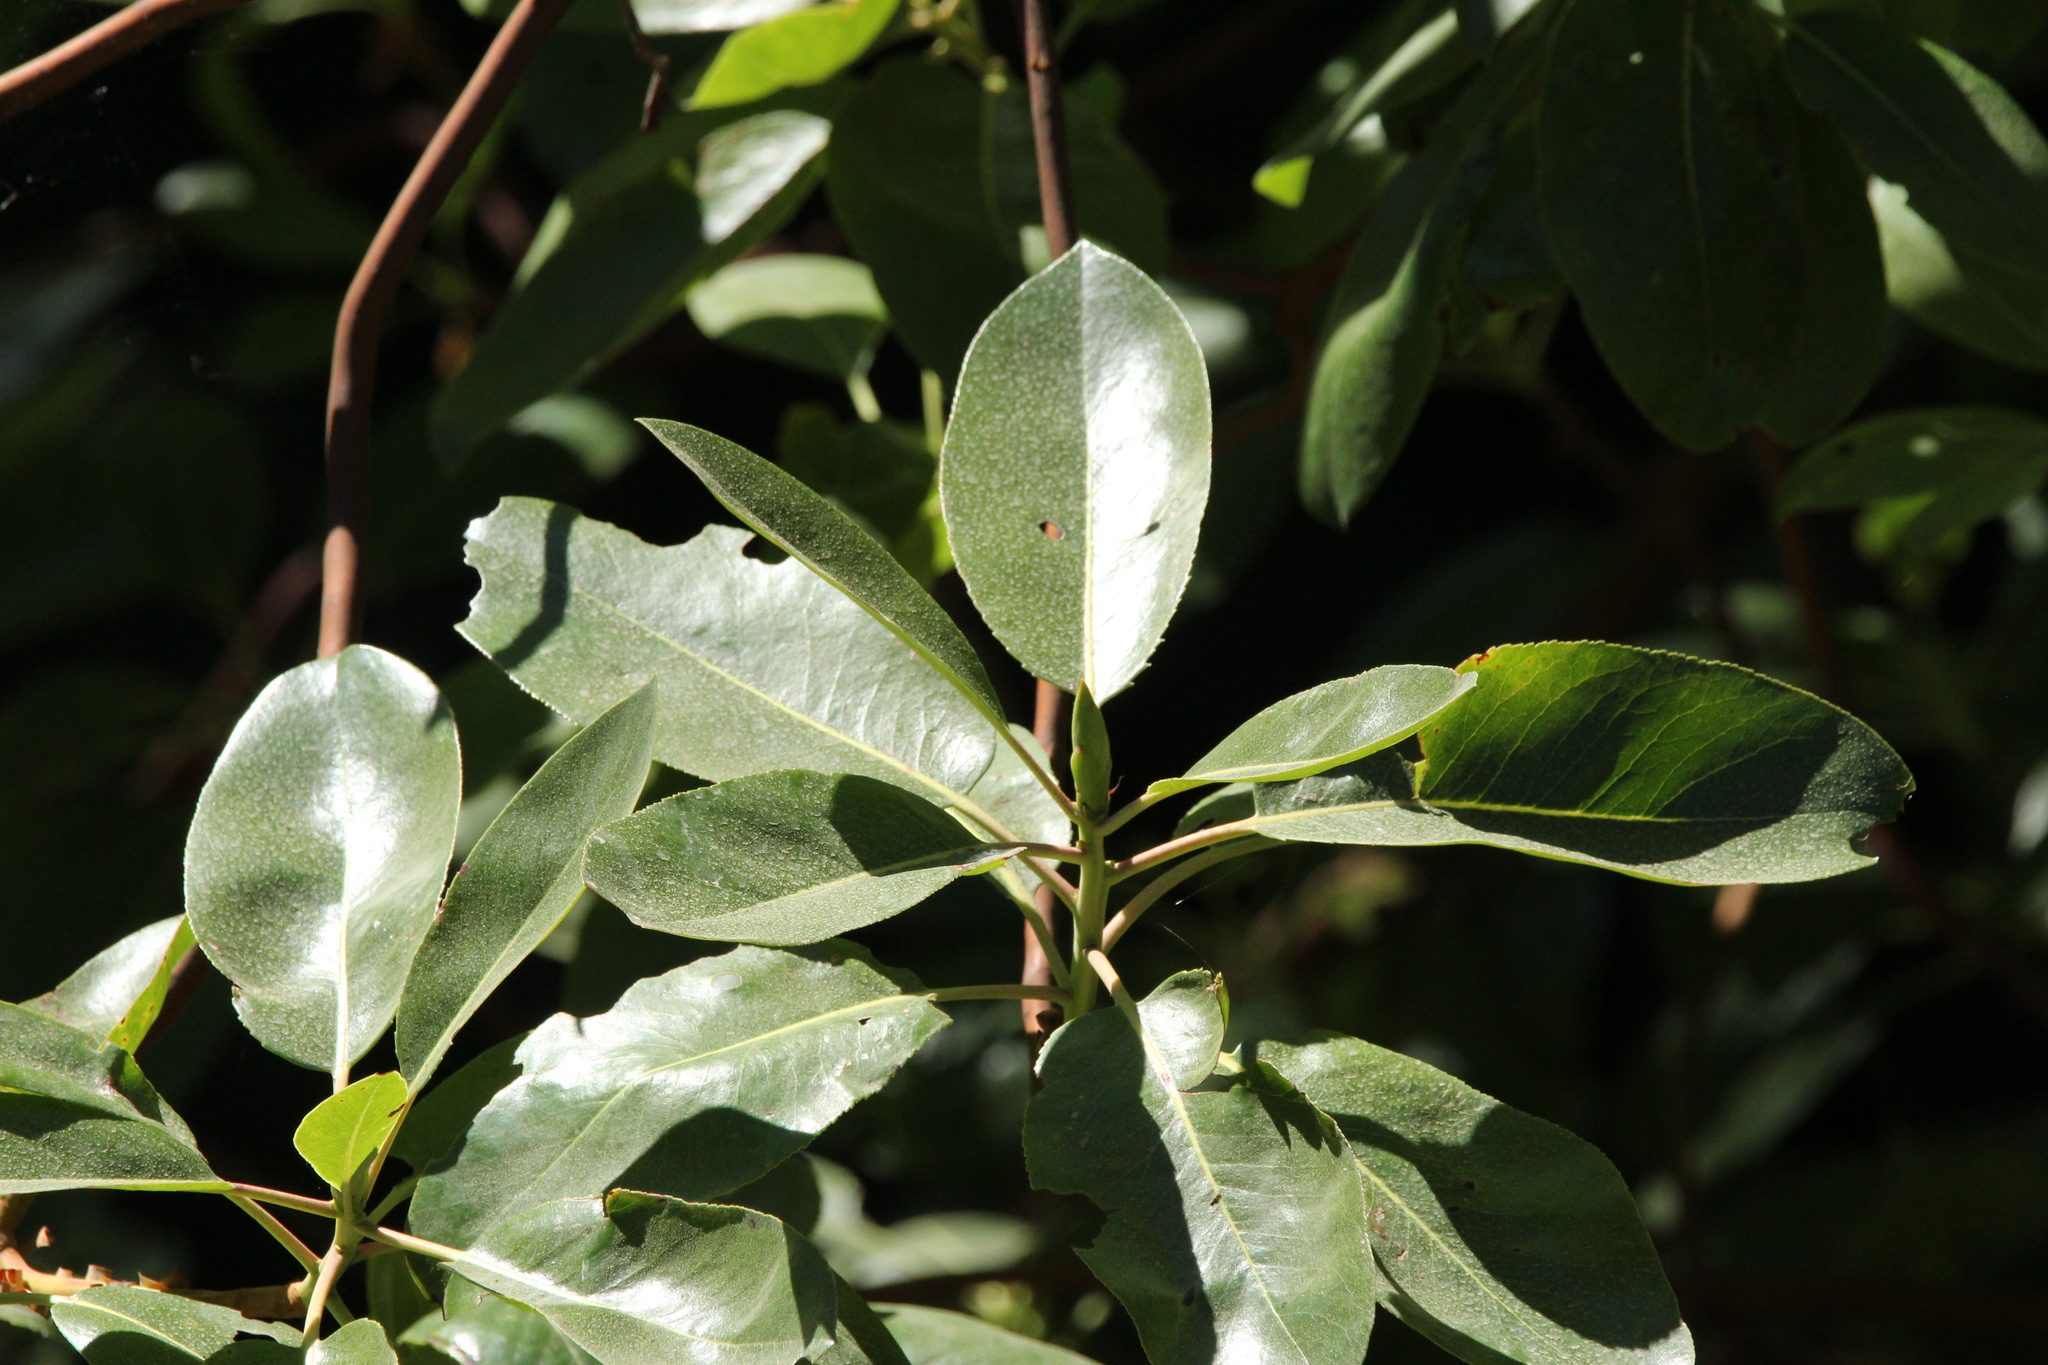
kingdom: Plantae
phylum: Tracheophyta
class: Magnoliopsida
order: Ericales
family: Ericaceae
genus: Arbutus
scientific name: Arbutus menziesii
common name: Pacific madrone
